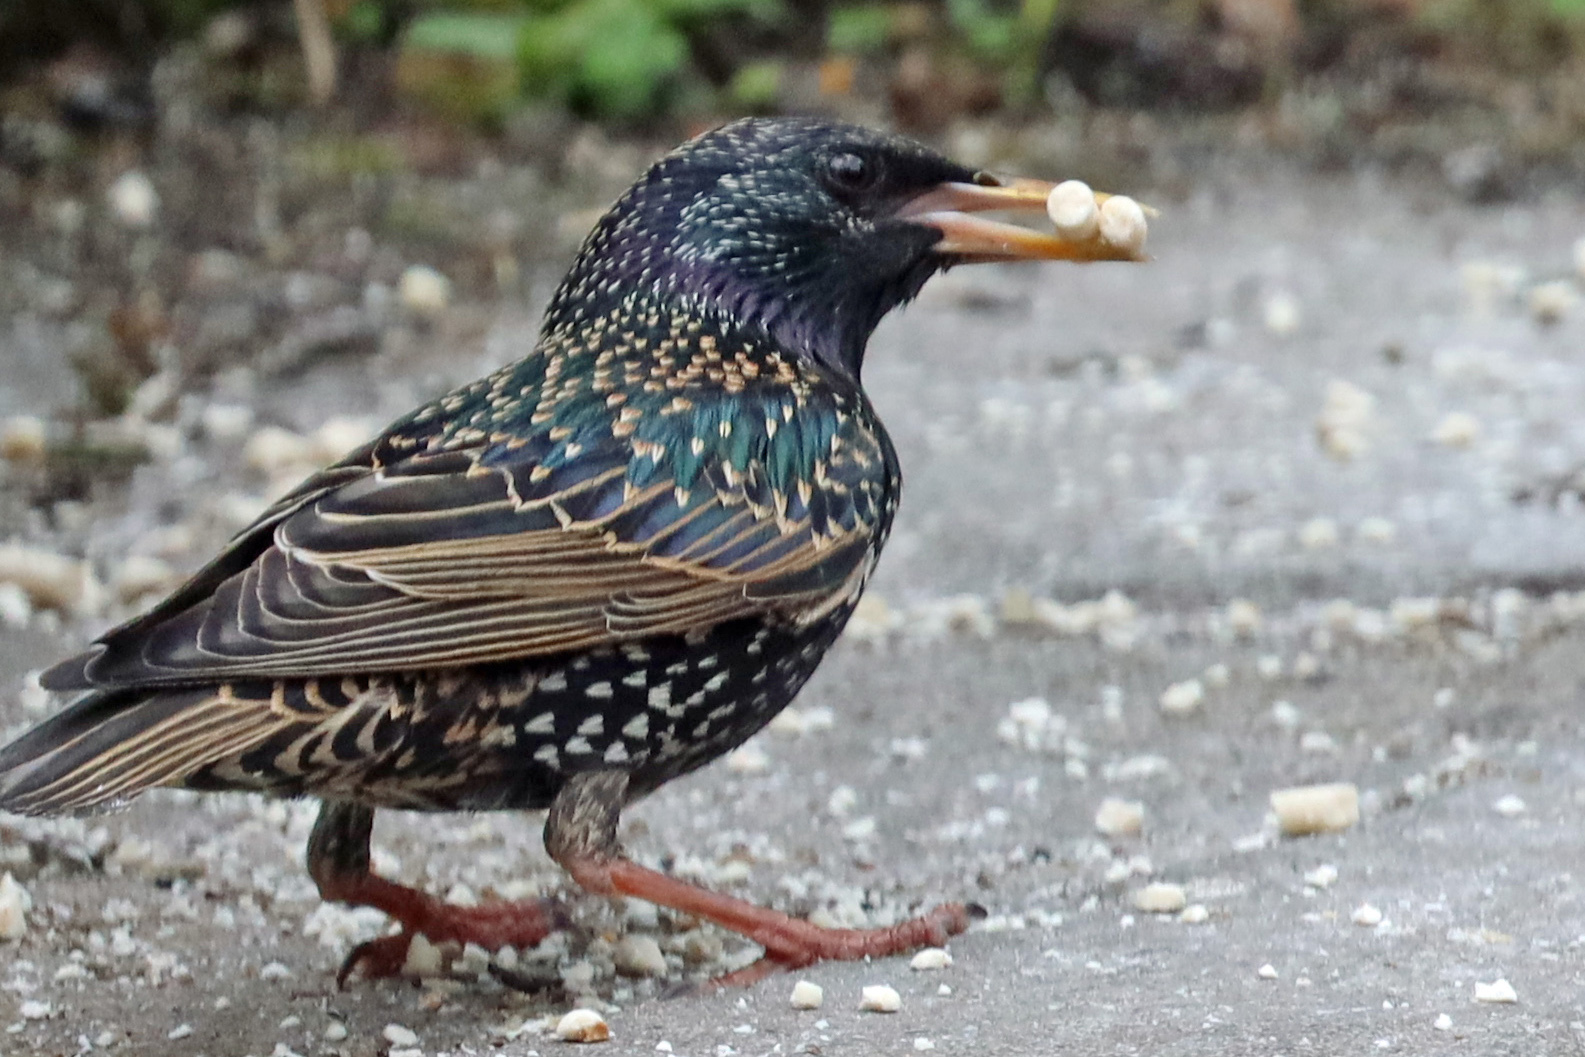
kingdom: Animalia
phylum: Chordata
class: Aves
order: Passeriformes
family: Sturnidae
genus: Sturnus
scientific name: Sturnus vulgaris
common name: Common starling
